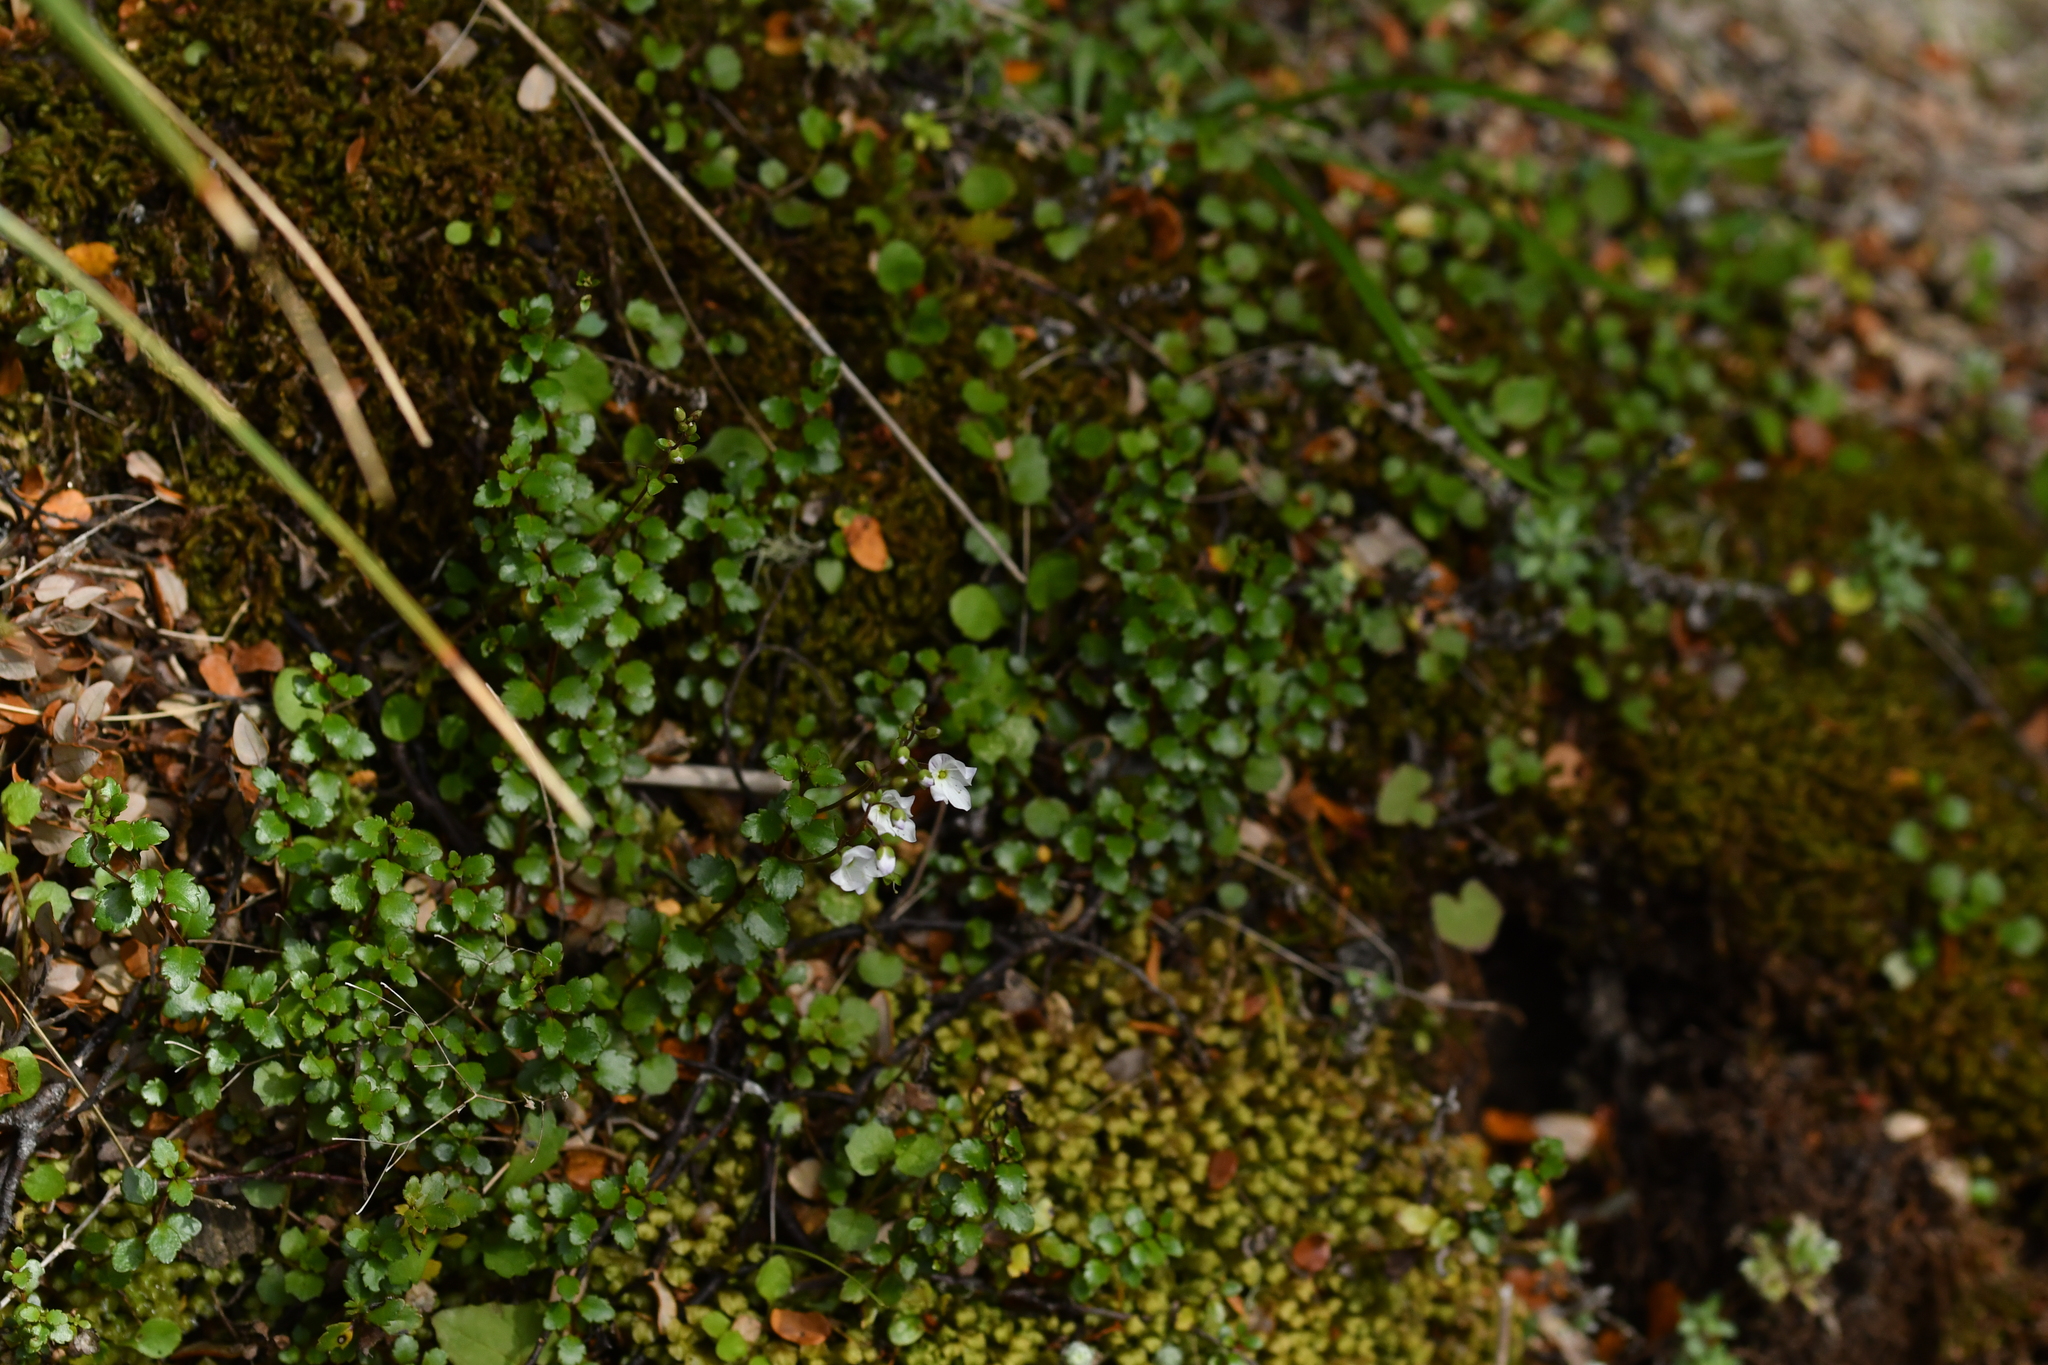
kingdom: Plantae
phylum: Tracheophyta
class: Magnoliopsida
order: Lamiales
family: Plantaginaceae
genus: Veronica
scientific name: Veronica lyallii
